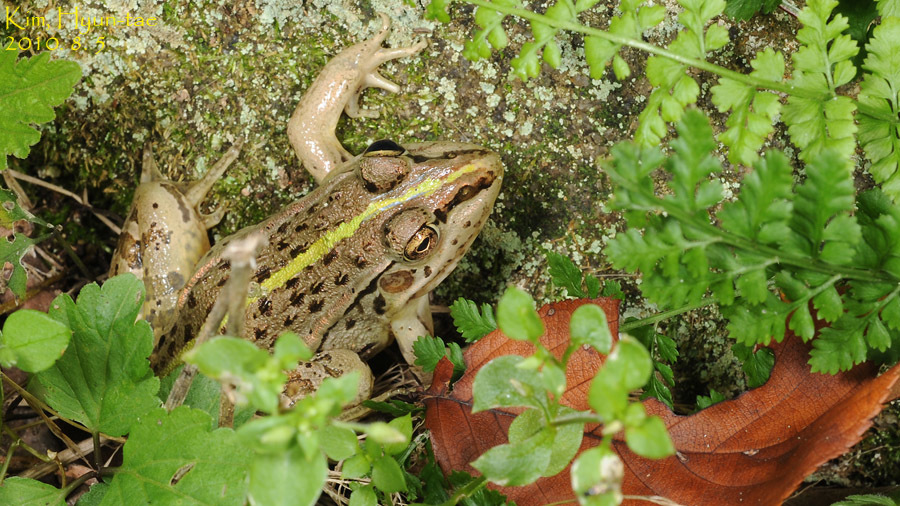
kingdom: Animalia
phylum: Chordata
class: Amphibia
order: Anura
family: Ranidae
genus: Pelophylax
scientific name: Pelophylax nigromaculatus
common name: Black-spotted pond frog
